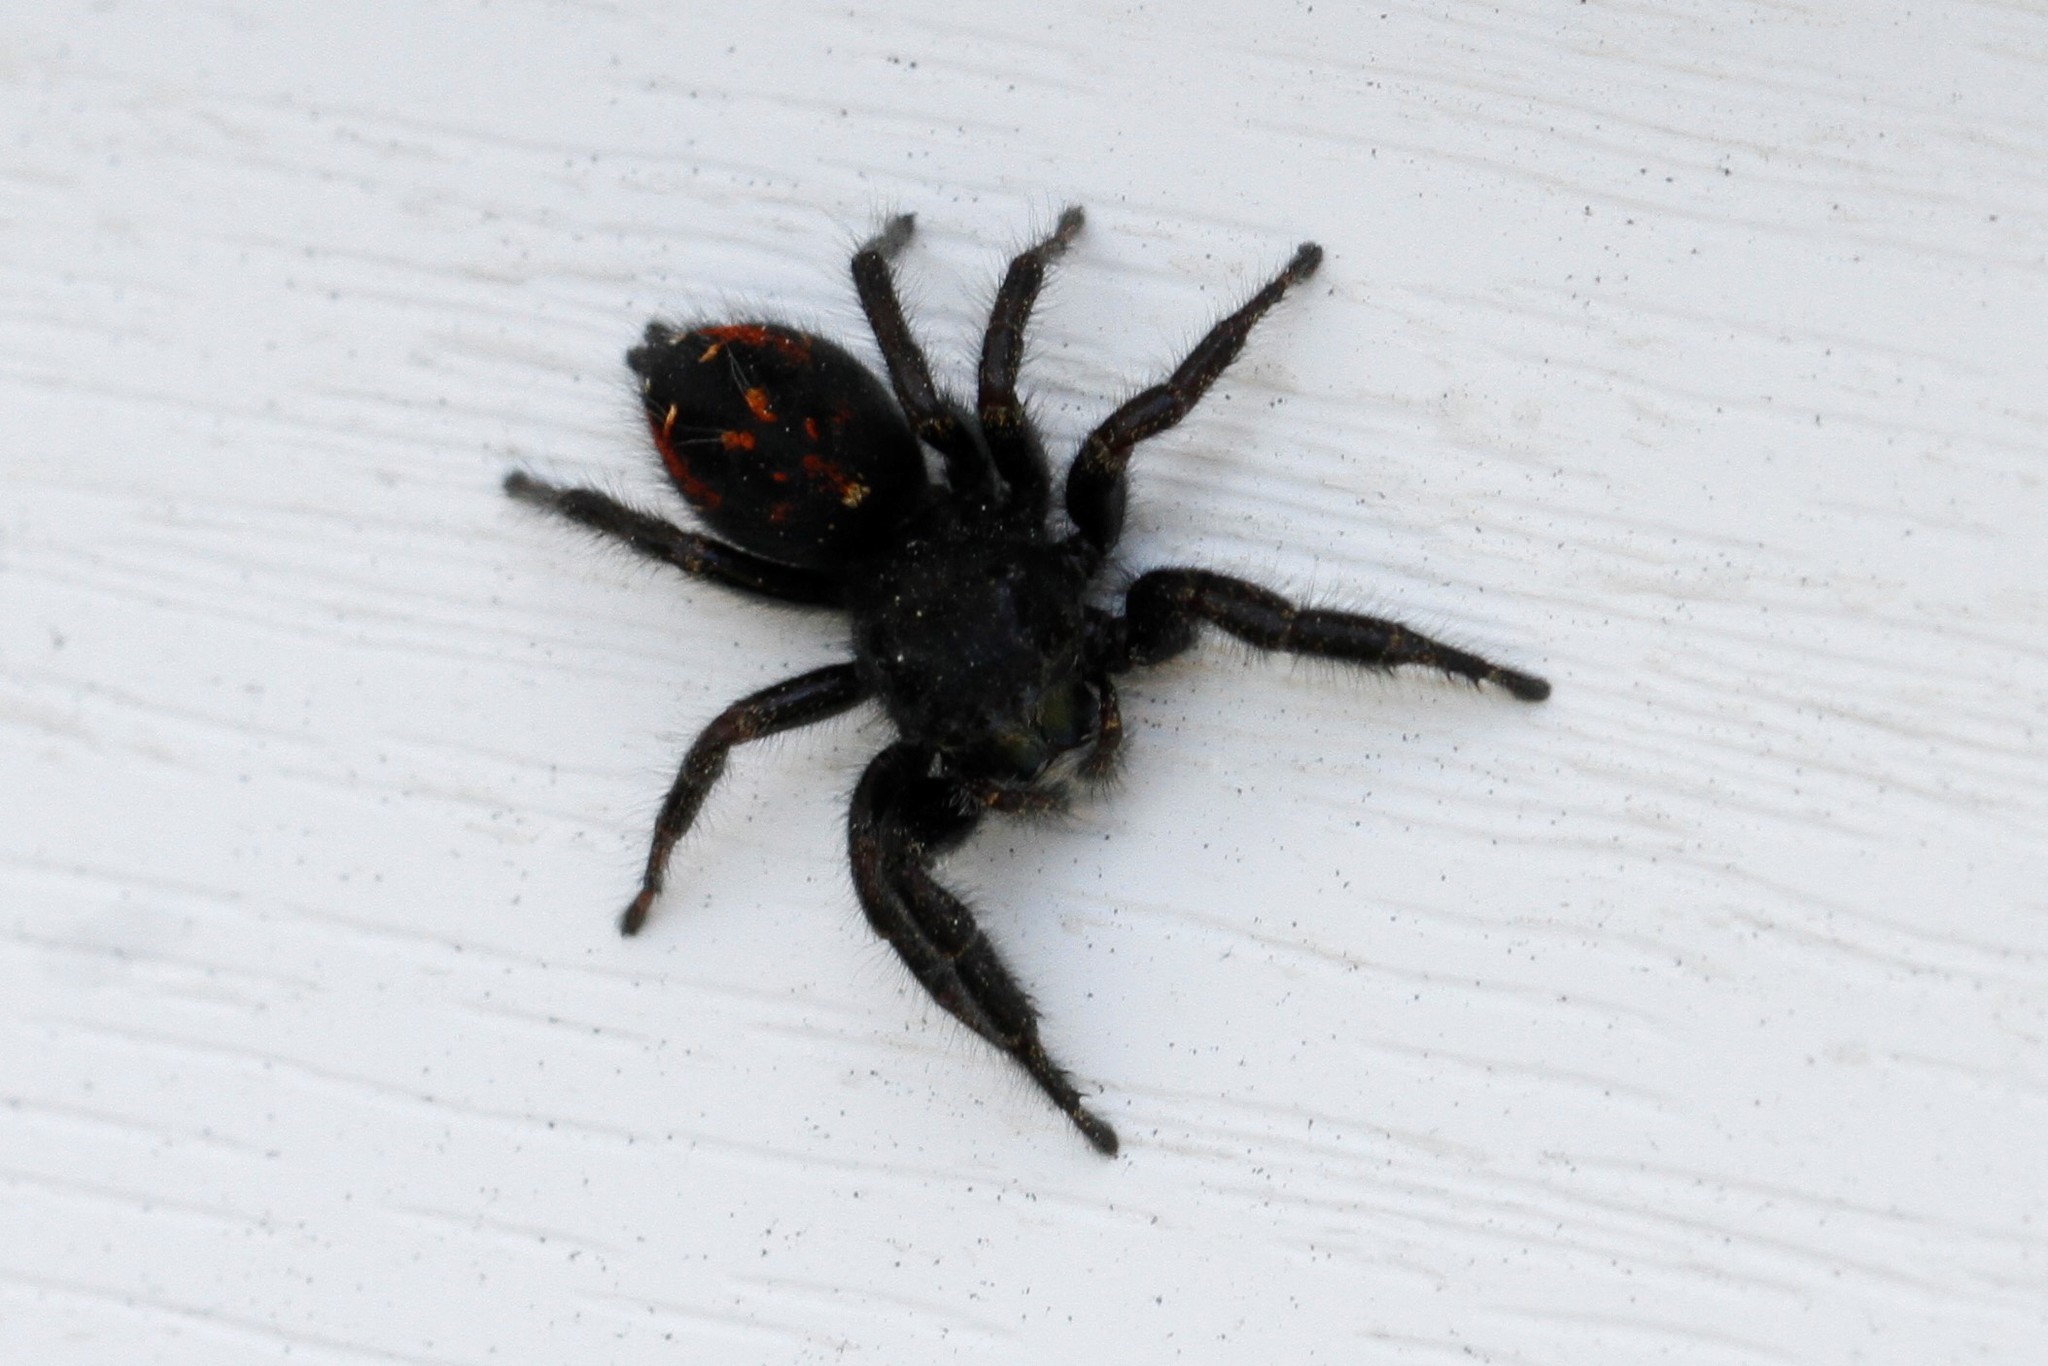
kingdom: Animalia
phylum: Arthropoda
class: Arachnida
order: Araneae
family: Salticidae
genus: Phidippus
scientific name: Phidippus johnsoni
